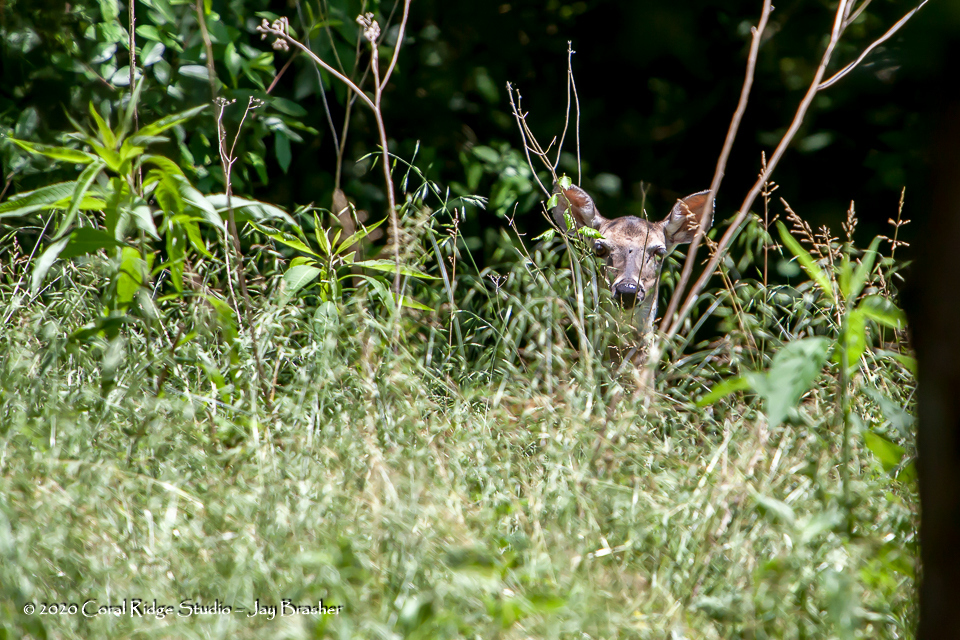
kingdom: Animalia
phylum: Chordata
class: Mammalia
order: Artiodactyla
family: Cervidae
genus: Odocoileus
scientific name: Odocoileus virginianus
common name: White-tailed deer
